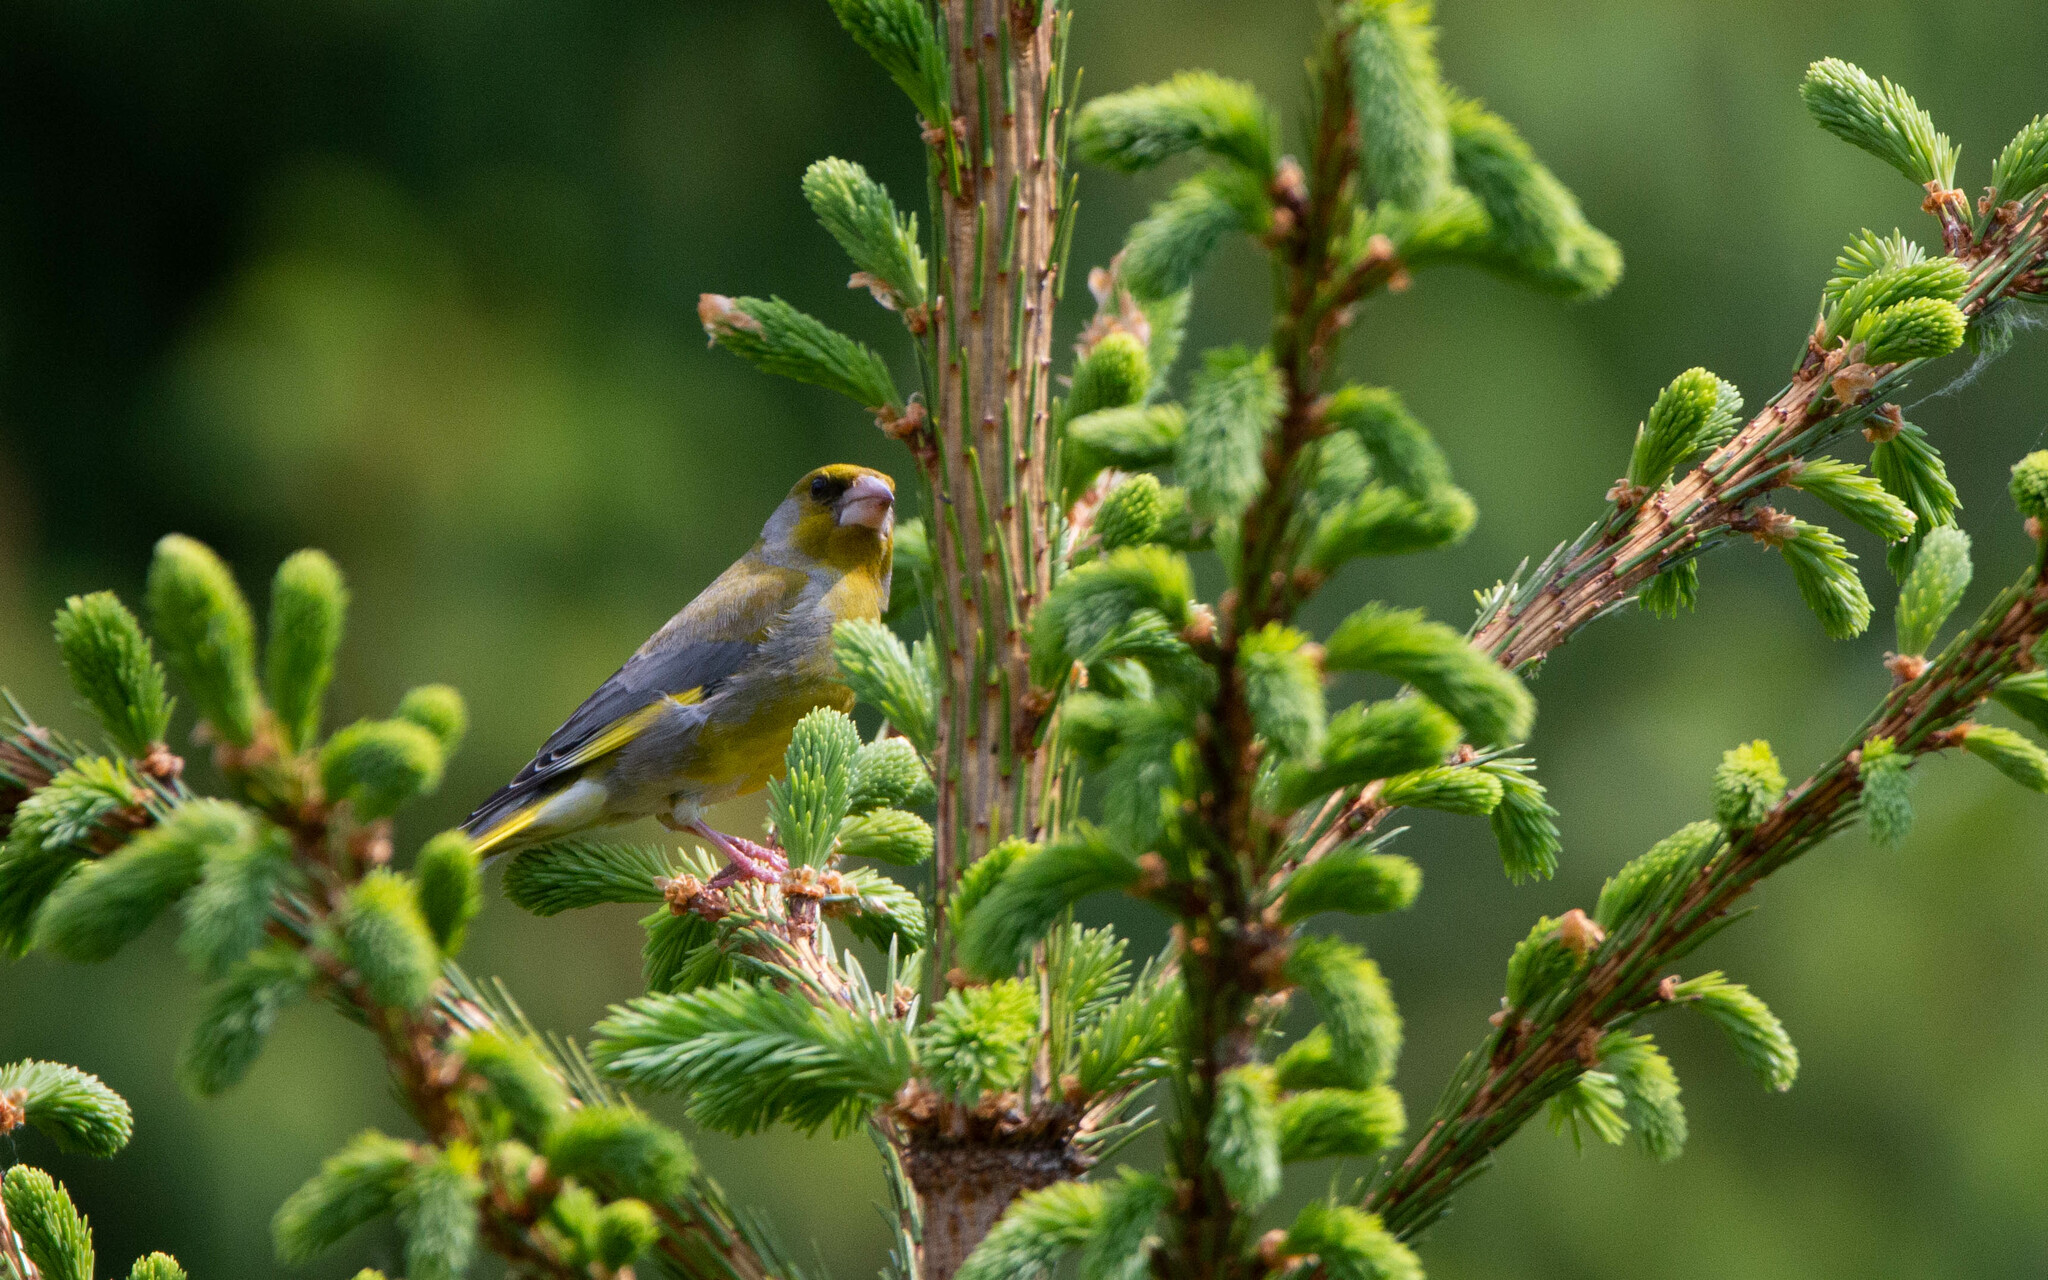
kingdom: Plantae
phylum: Tracheophyta
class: Liliopsida
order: Poales
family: Poaceae
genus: Chloris
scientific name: Chloris chloris
